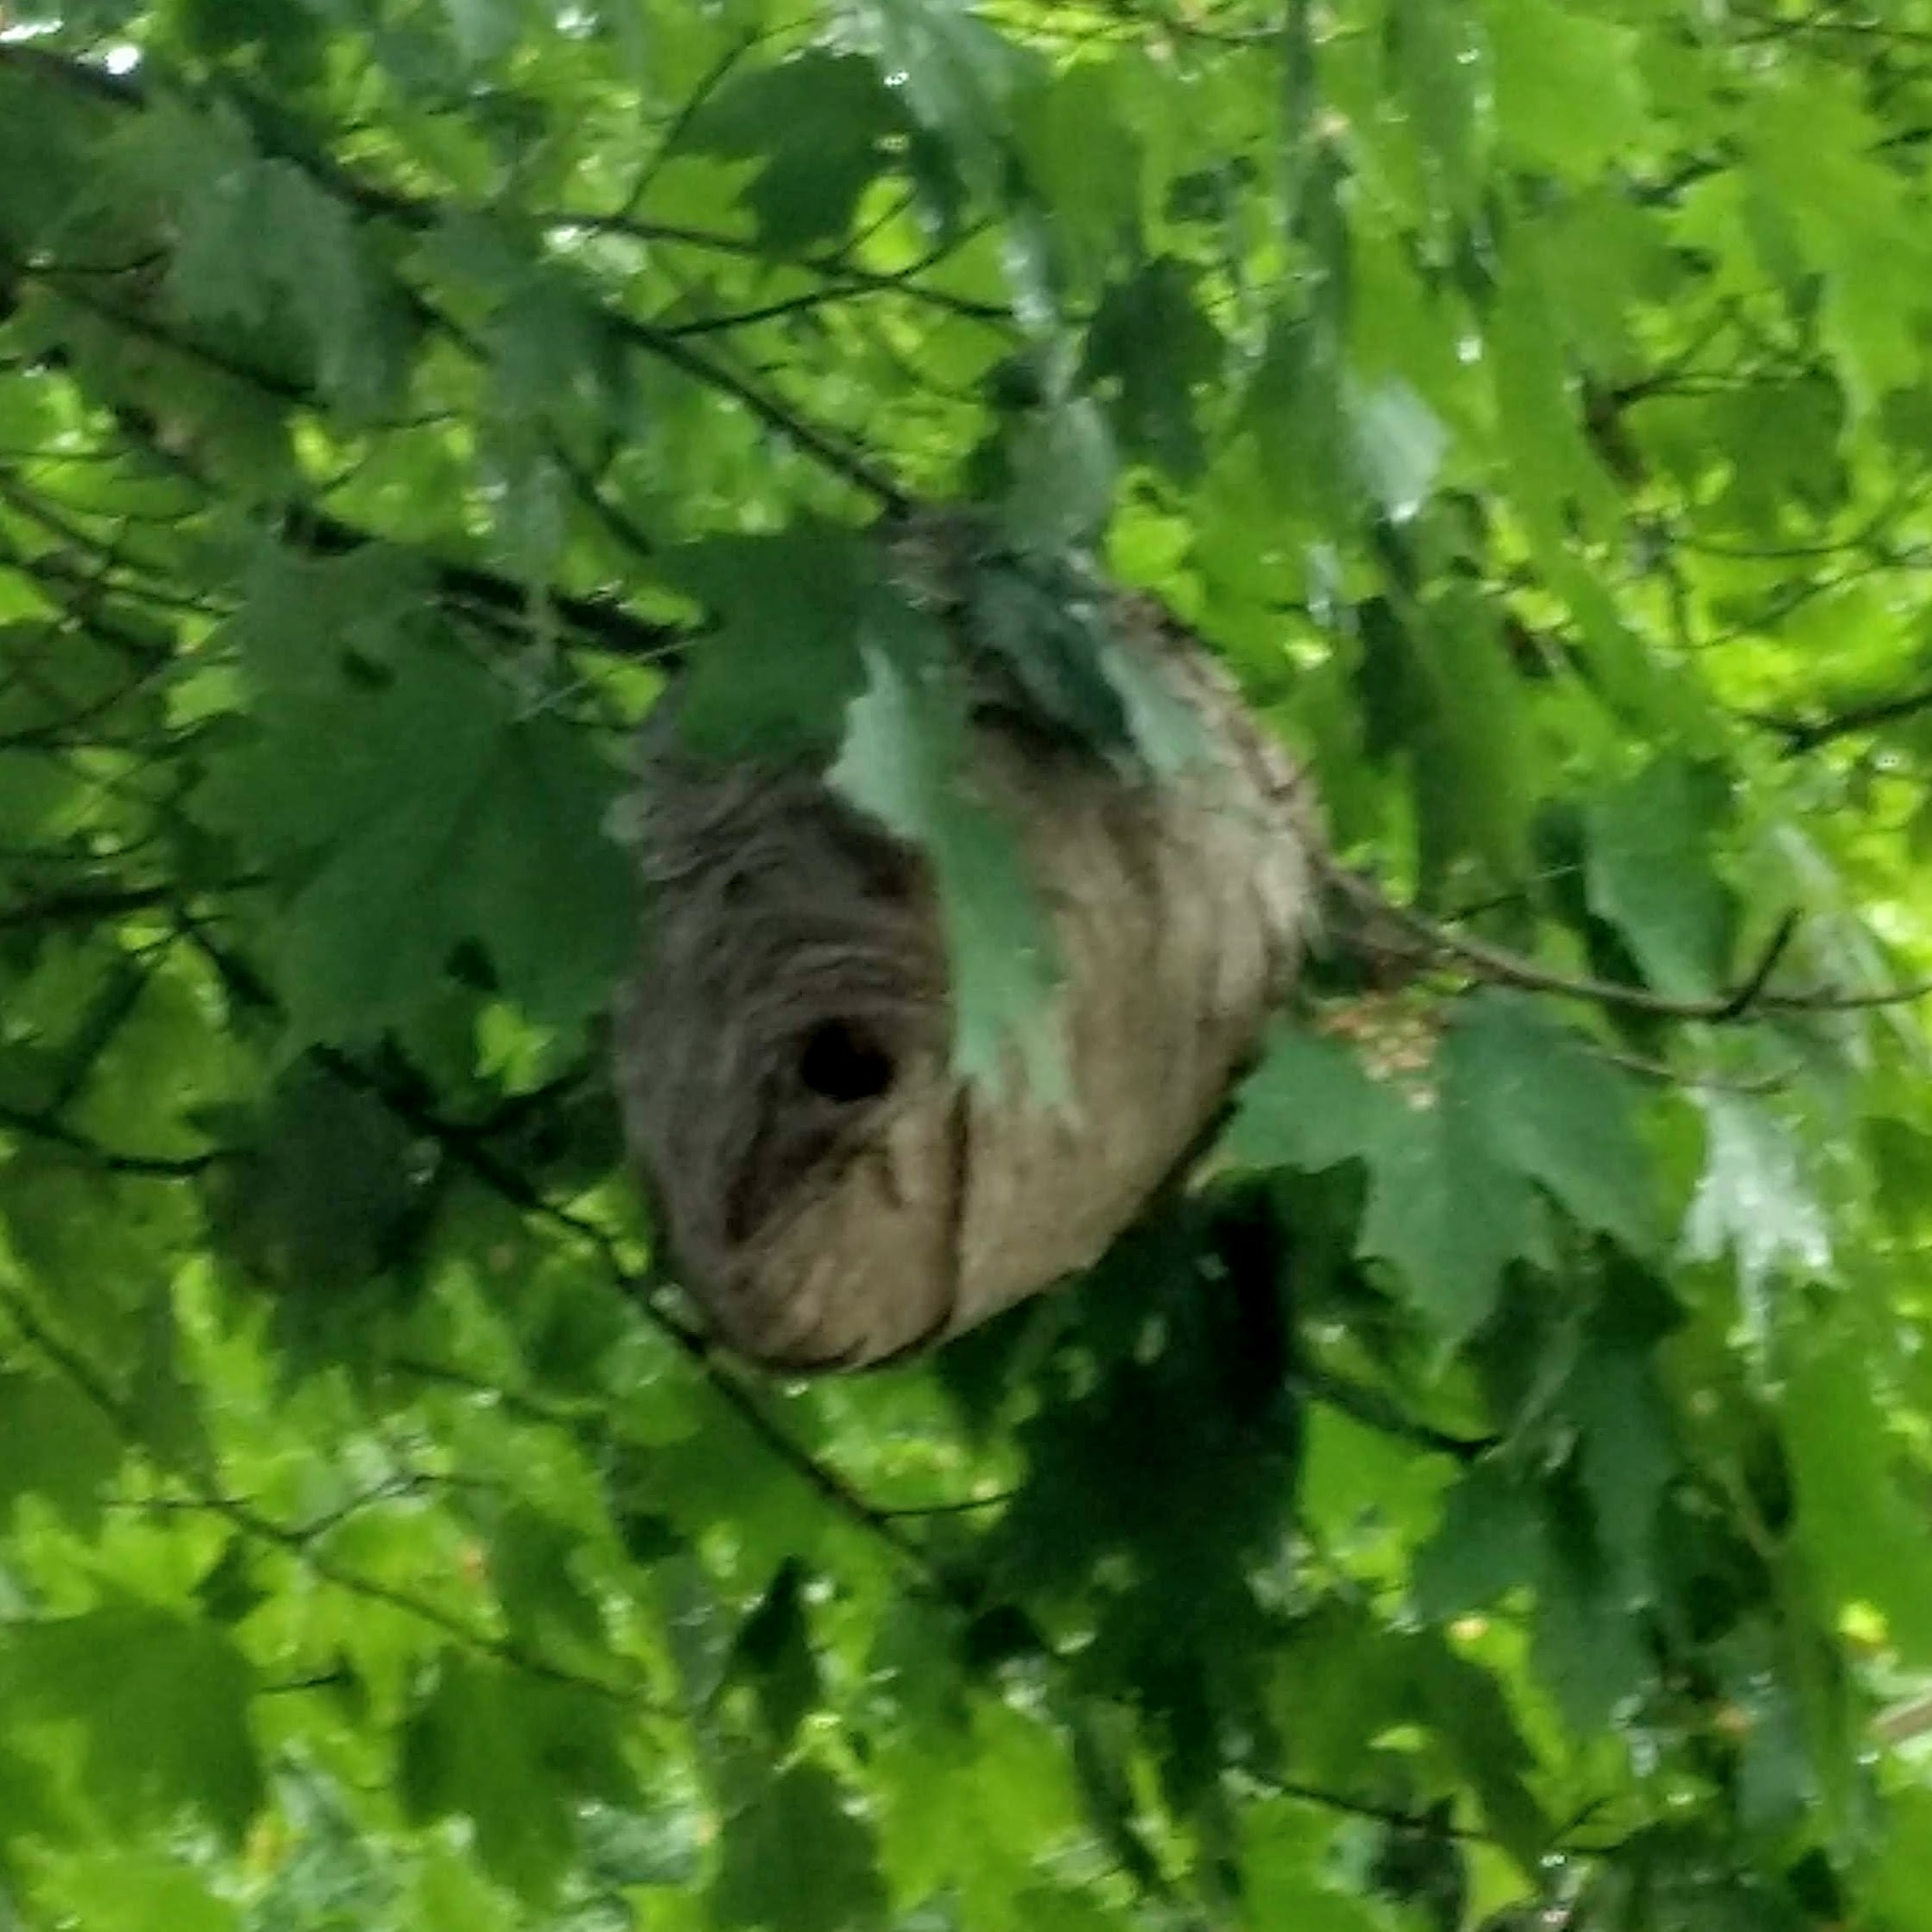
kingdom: Animalia
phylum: Arthropoda
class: Insecta
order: Hymenoptera
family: Vespidae
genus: Dolichovespula
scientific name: Dolichovespula
